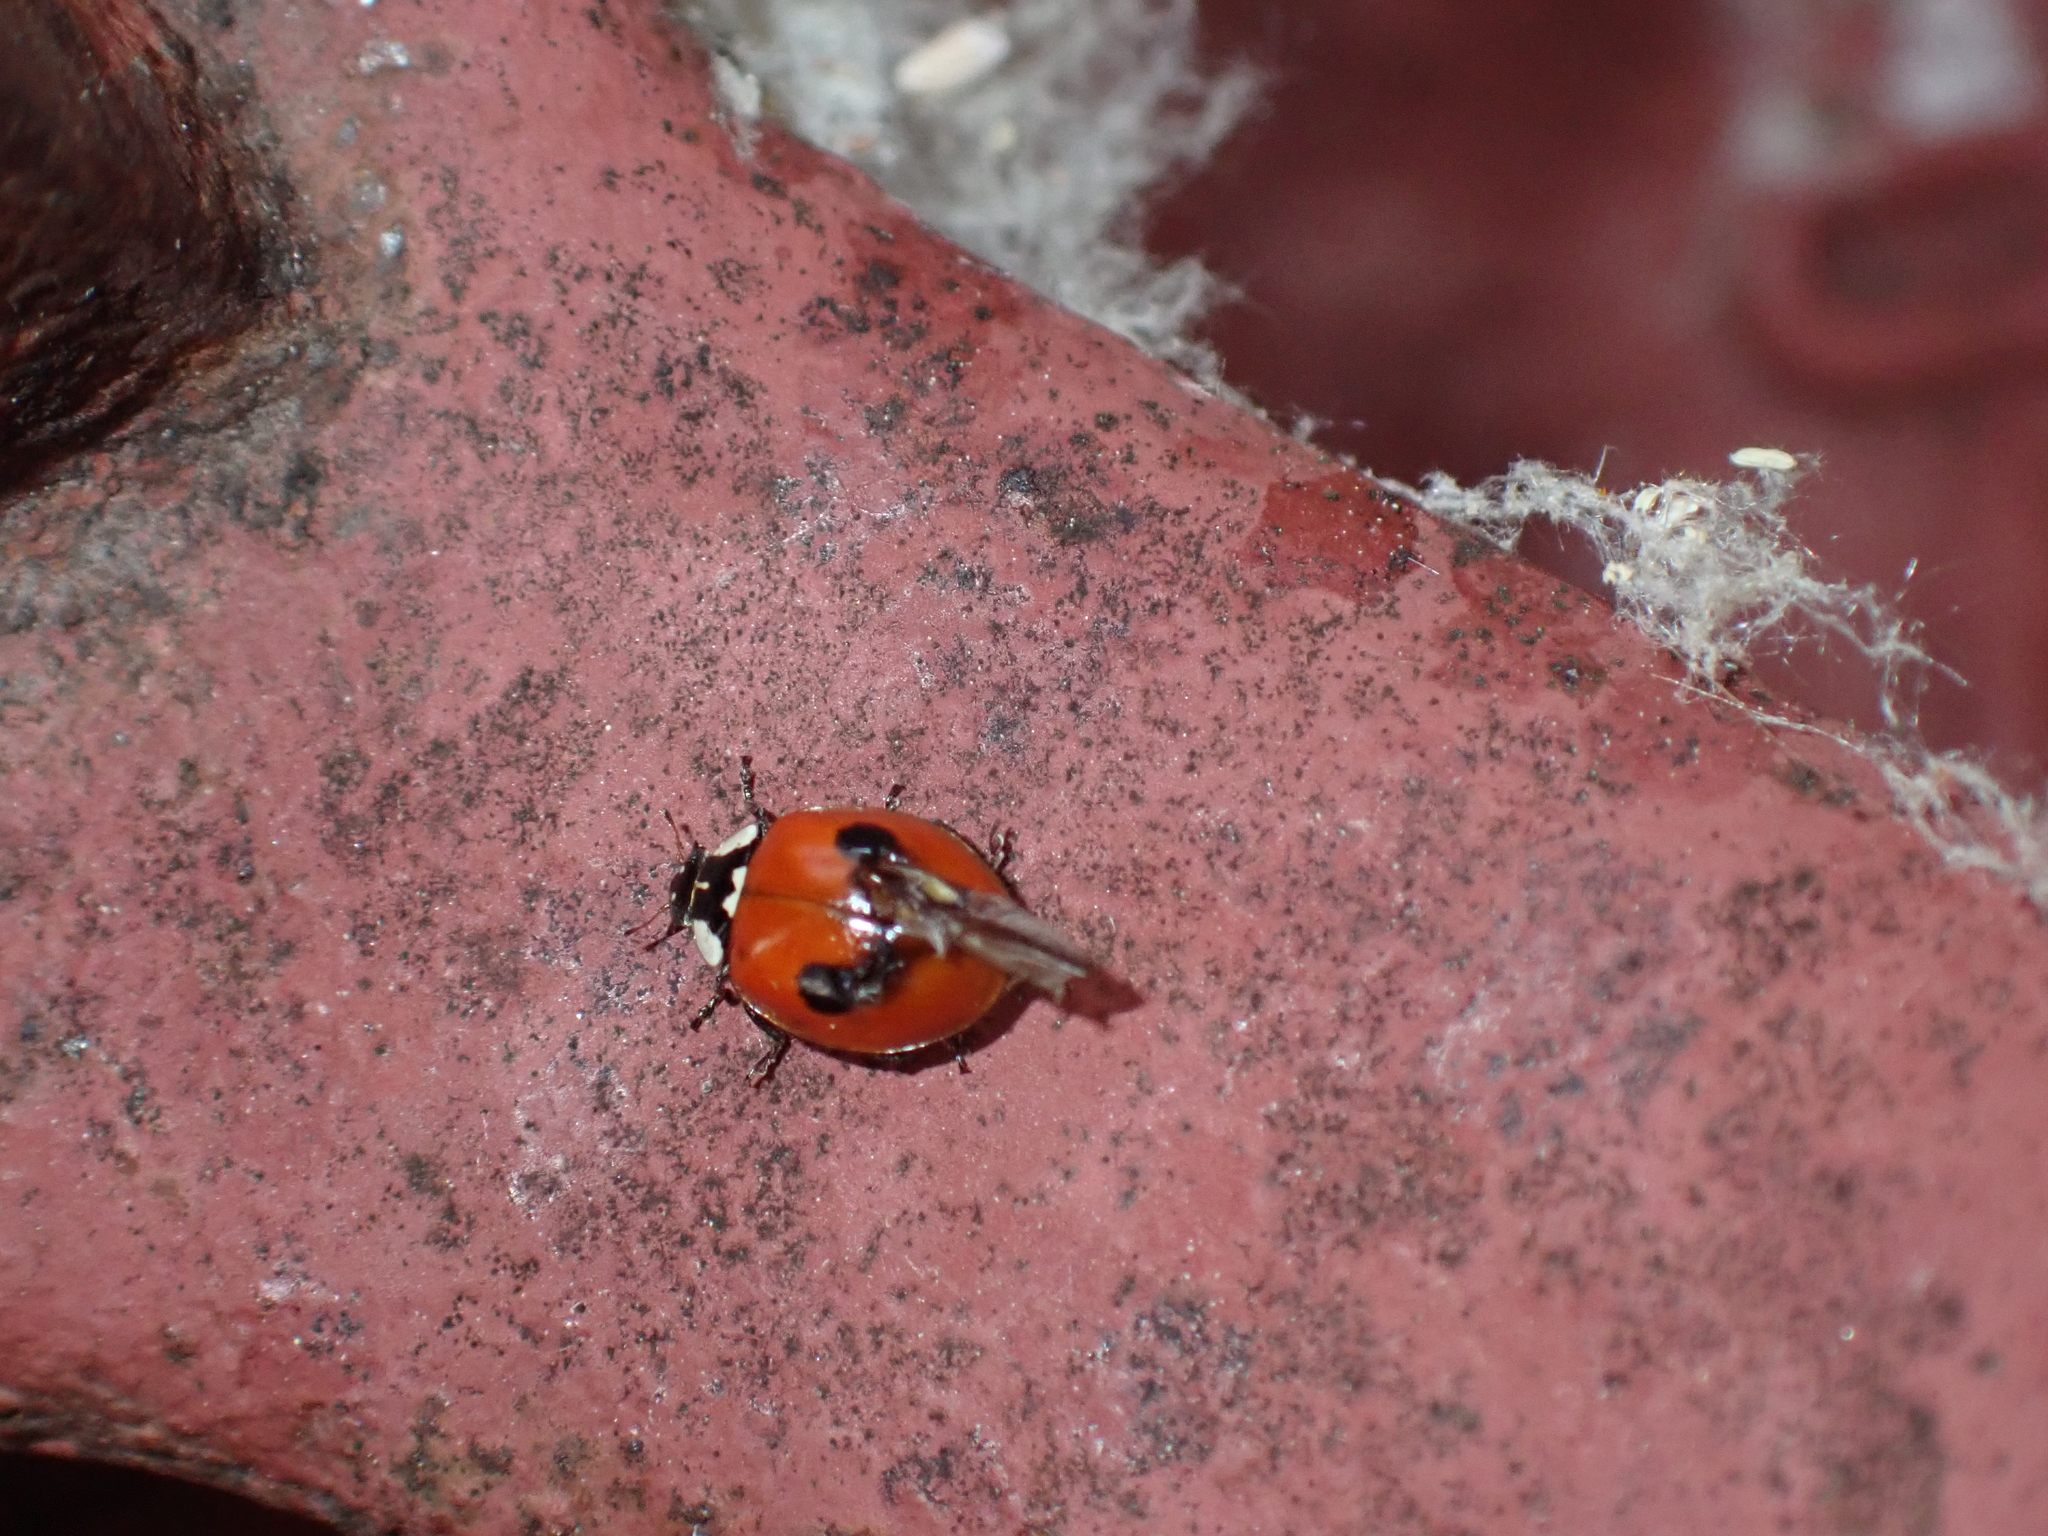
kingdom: Animalia
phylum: Arthropoda
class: Insecta
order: Coleoptera
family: Coccinellidae
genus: Adalia
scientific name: Adalia bipunctata
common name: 2-spot ladybird
